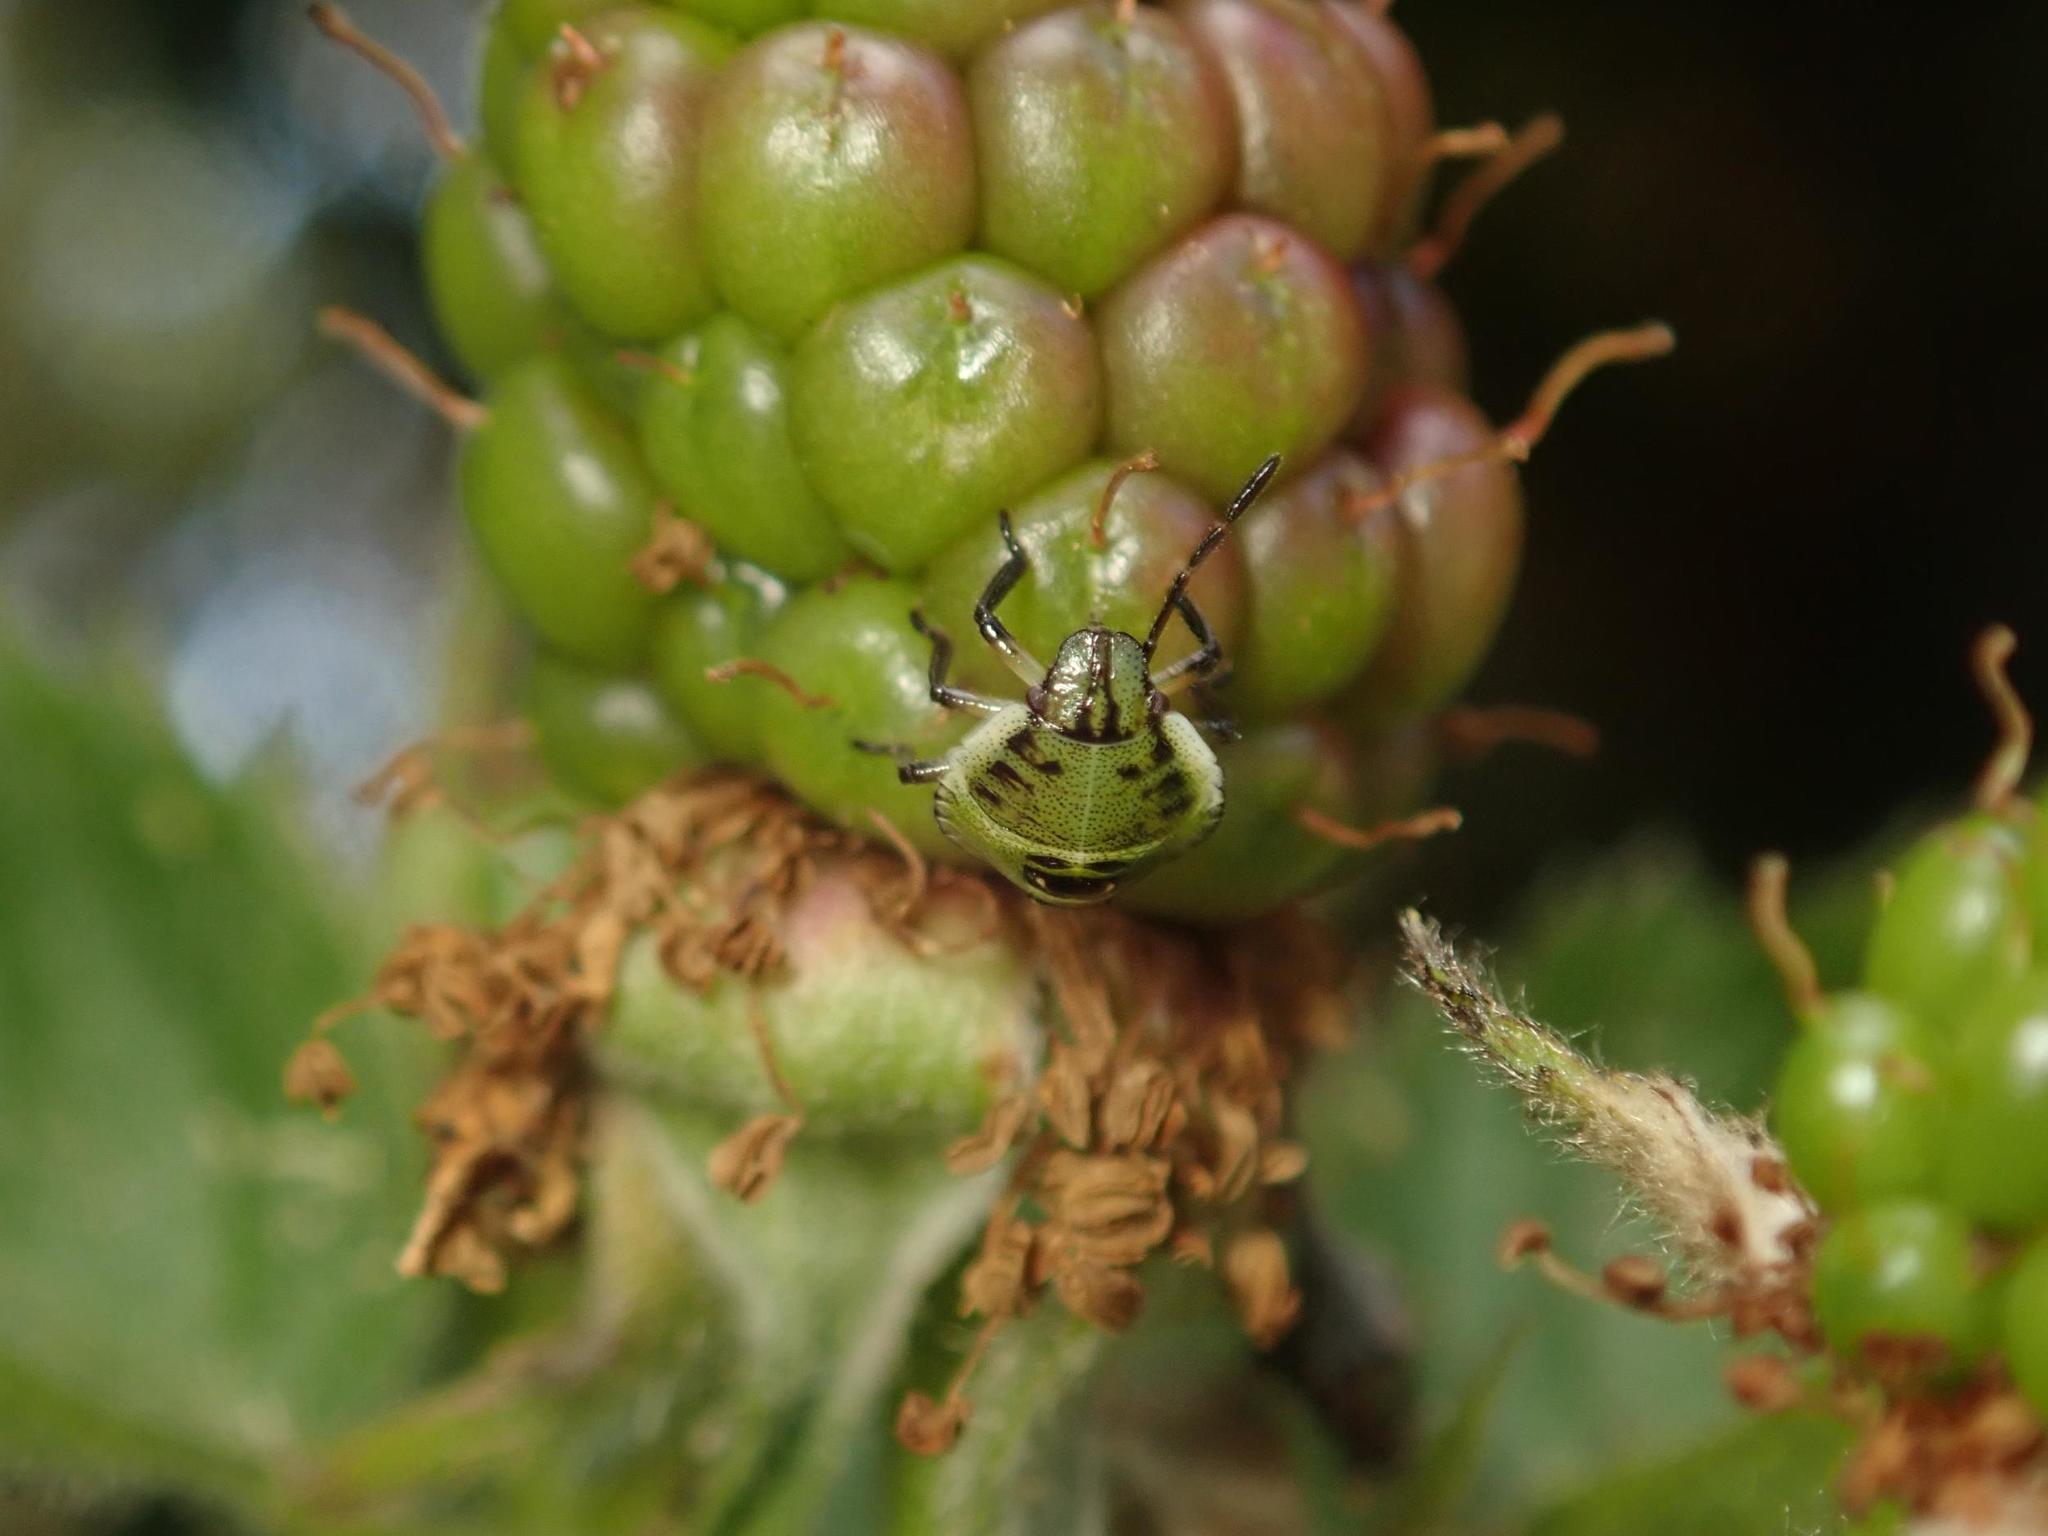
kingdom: Animalia
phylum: Arthropoda
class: Insecta
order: Hemiptera
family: Pentatomidae
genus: Palomena
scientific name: Palomena prasina
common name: Green shieldbug
